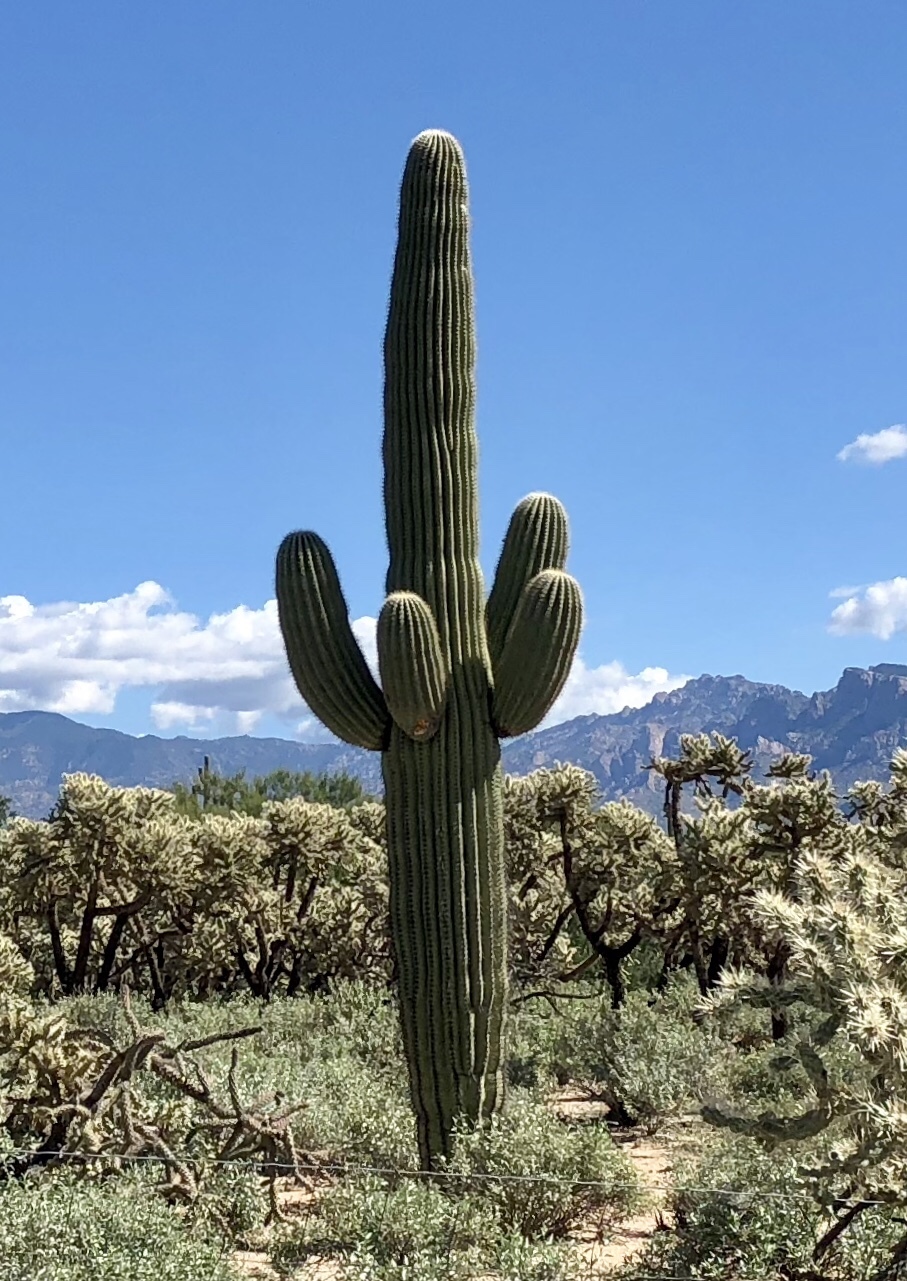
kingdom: Plantae
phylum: Tracheophyta
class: Magnoliopsida
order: Caryophyllales
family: Cactaceae
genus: Carnegiea
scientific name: Carnegiea gigantea
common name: Saguaro
